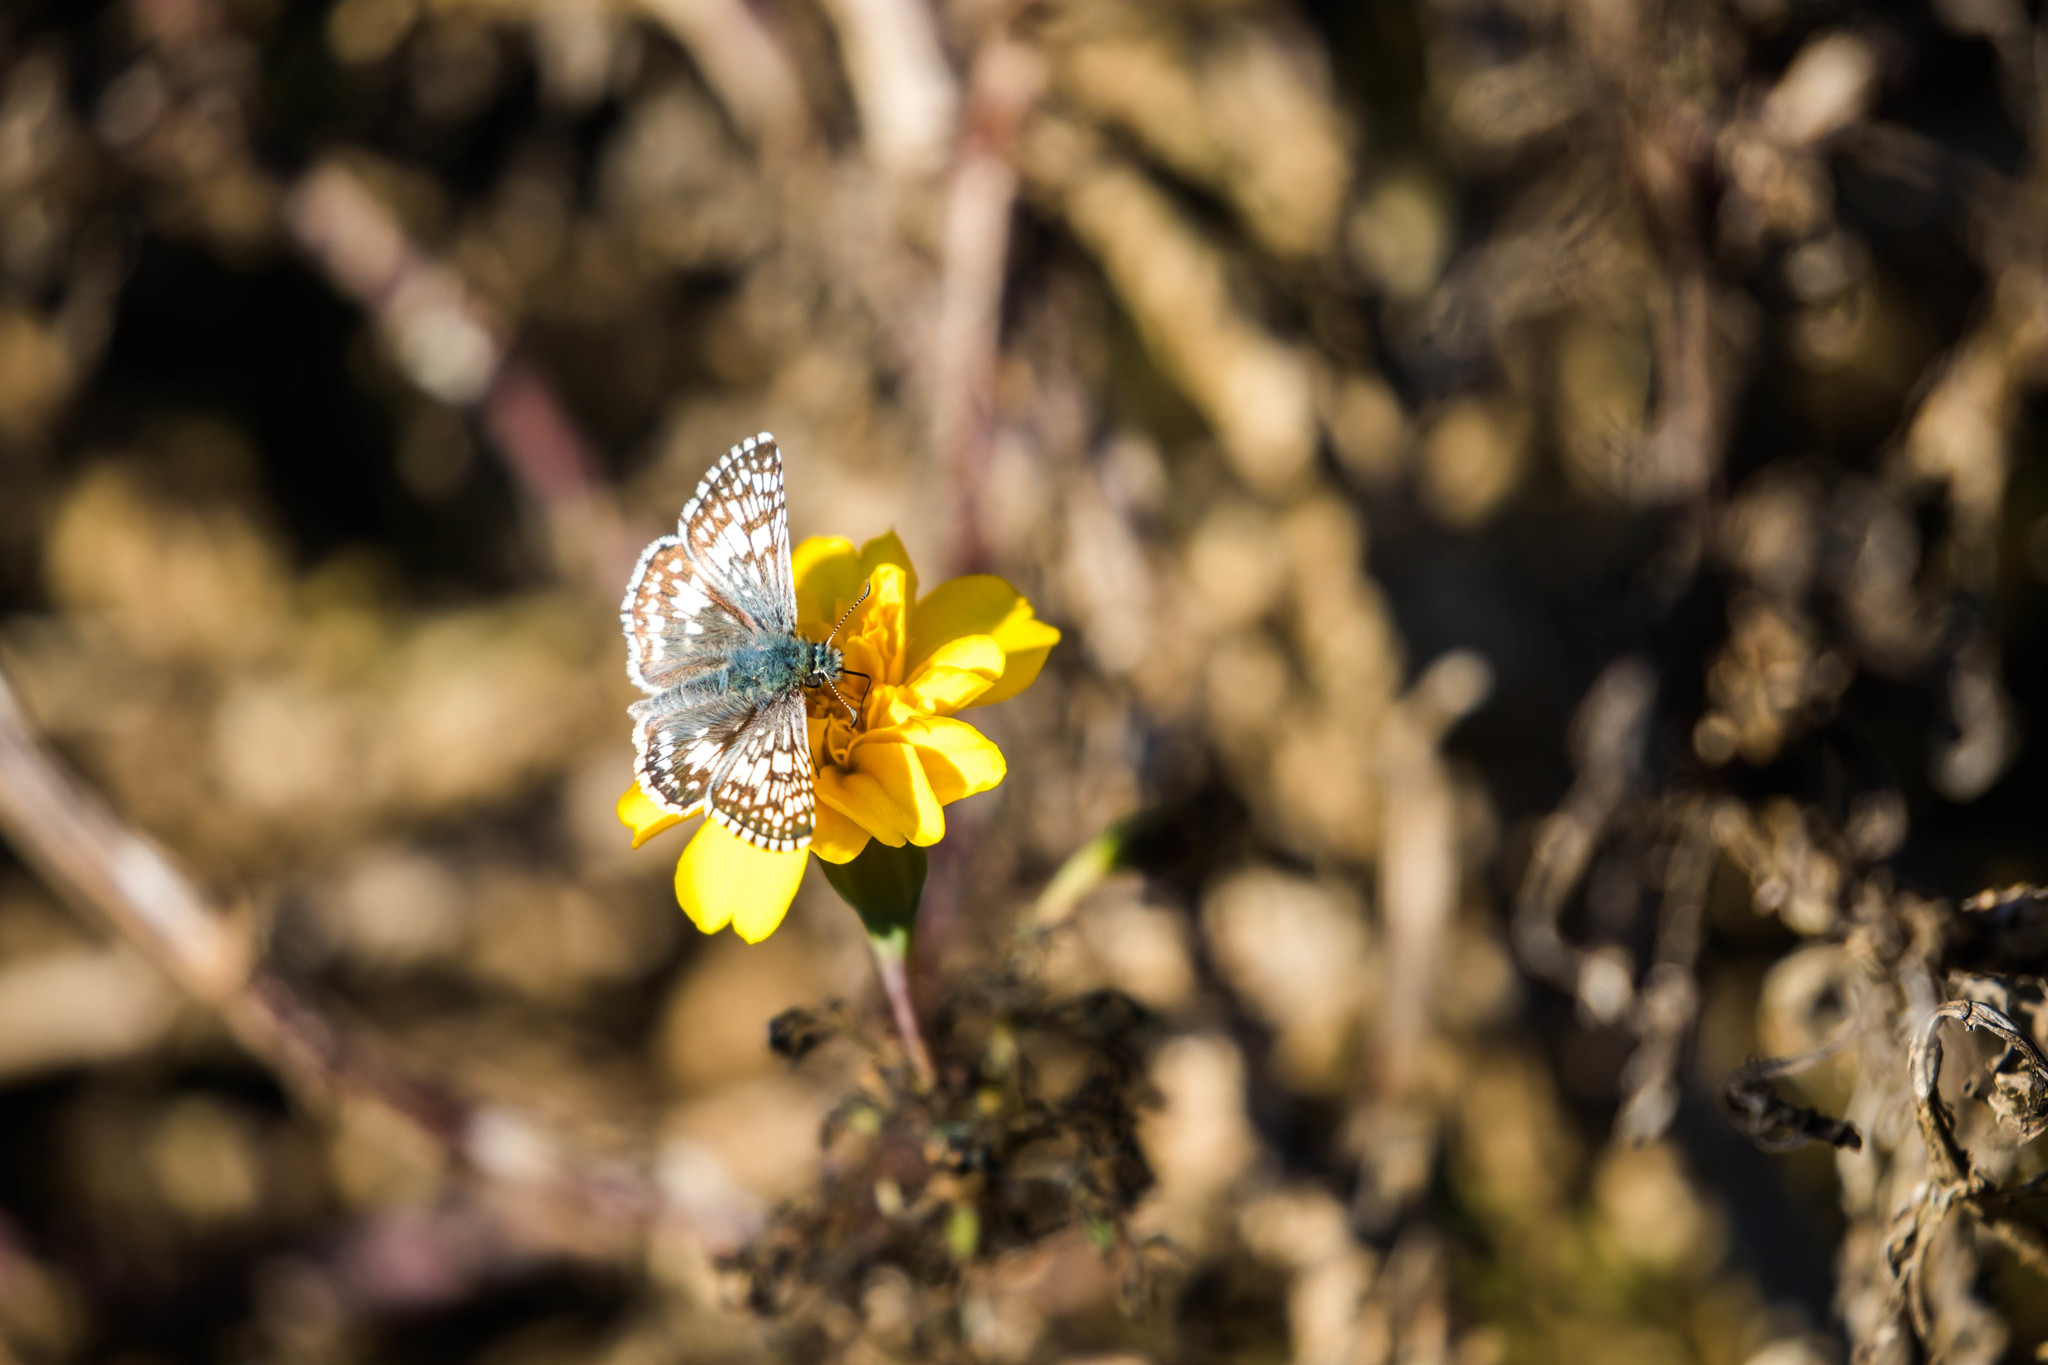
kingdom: Animalia
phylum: Arthropoda
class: Insecta
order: Lepidoptera
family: Hesperiidae
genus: Burnsius
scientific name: Burnsius communis
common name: Common checkered-skipper
